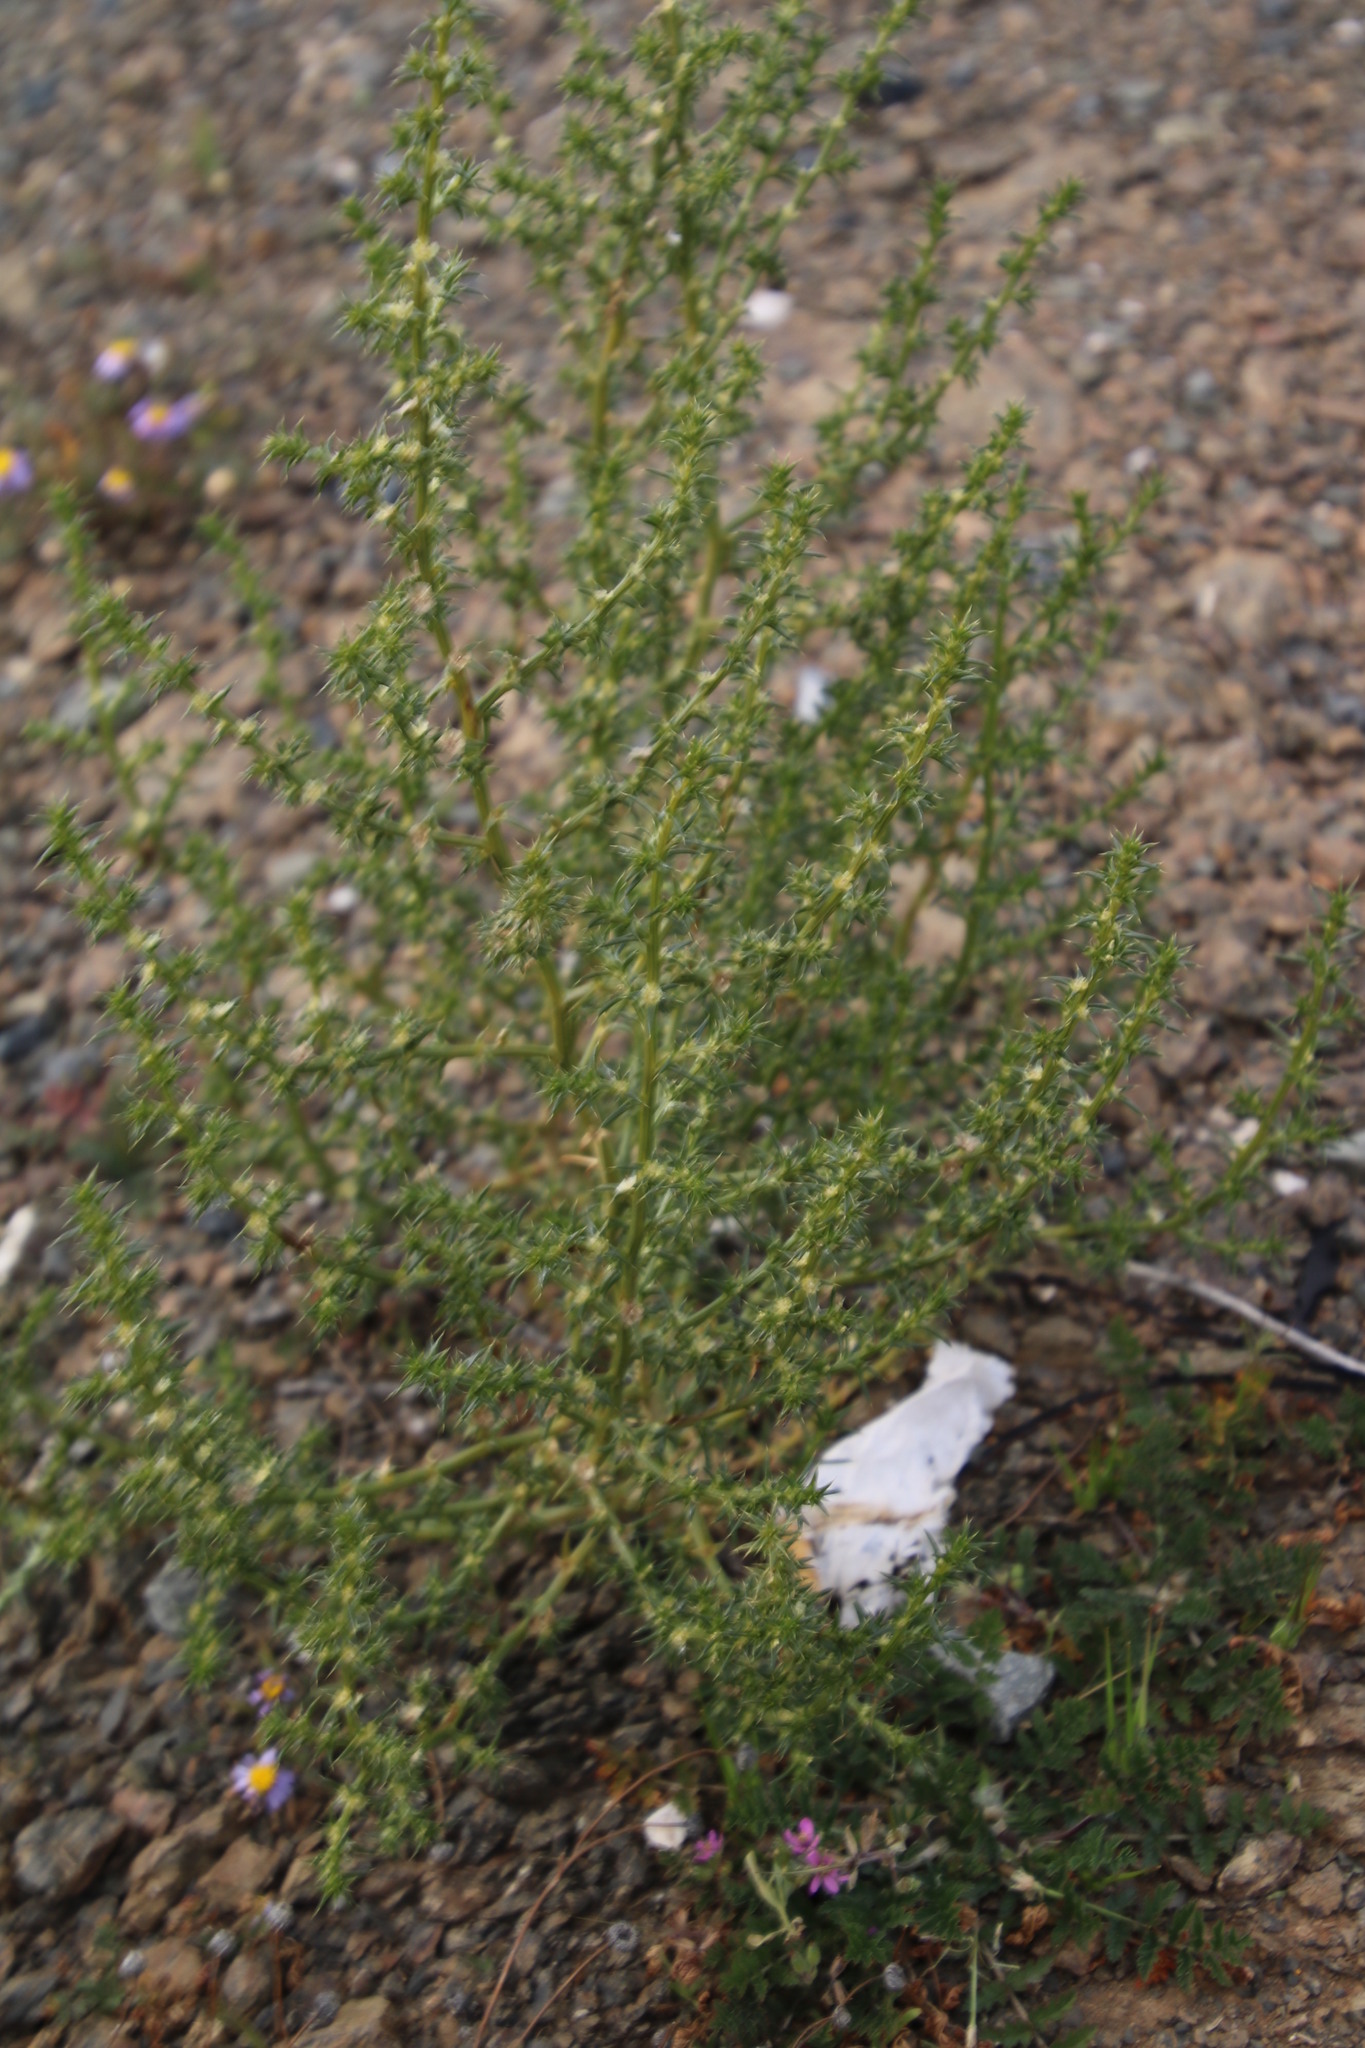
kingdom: Plantae
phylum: Tracheophyta
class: Magnoliopsida
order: Caryophyllales
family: Amaranthaceae
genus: Salsola
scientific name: Salsola kali
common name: Saltwort
